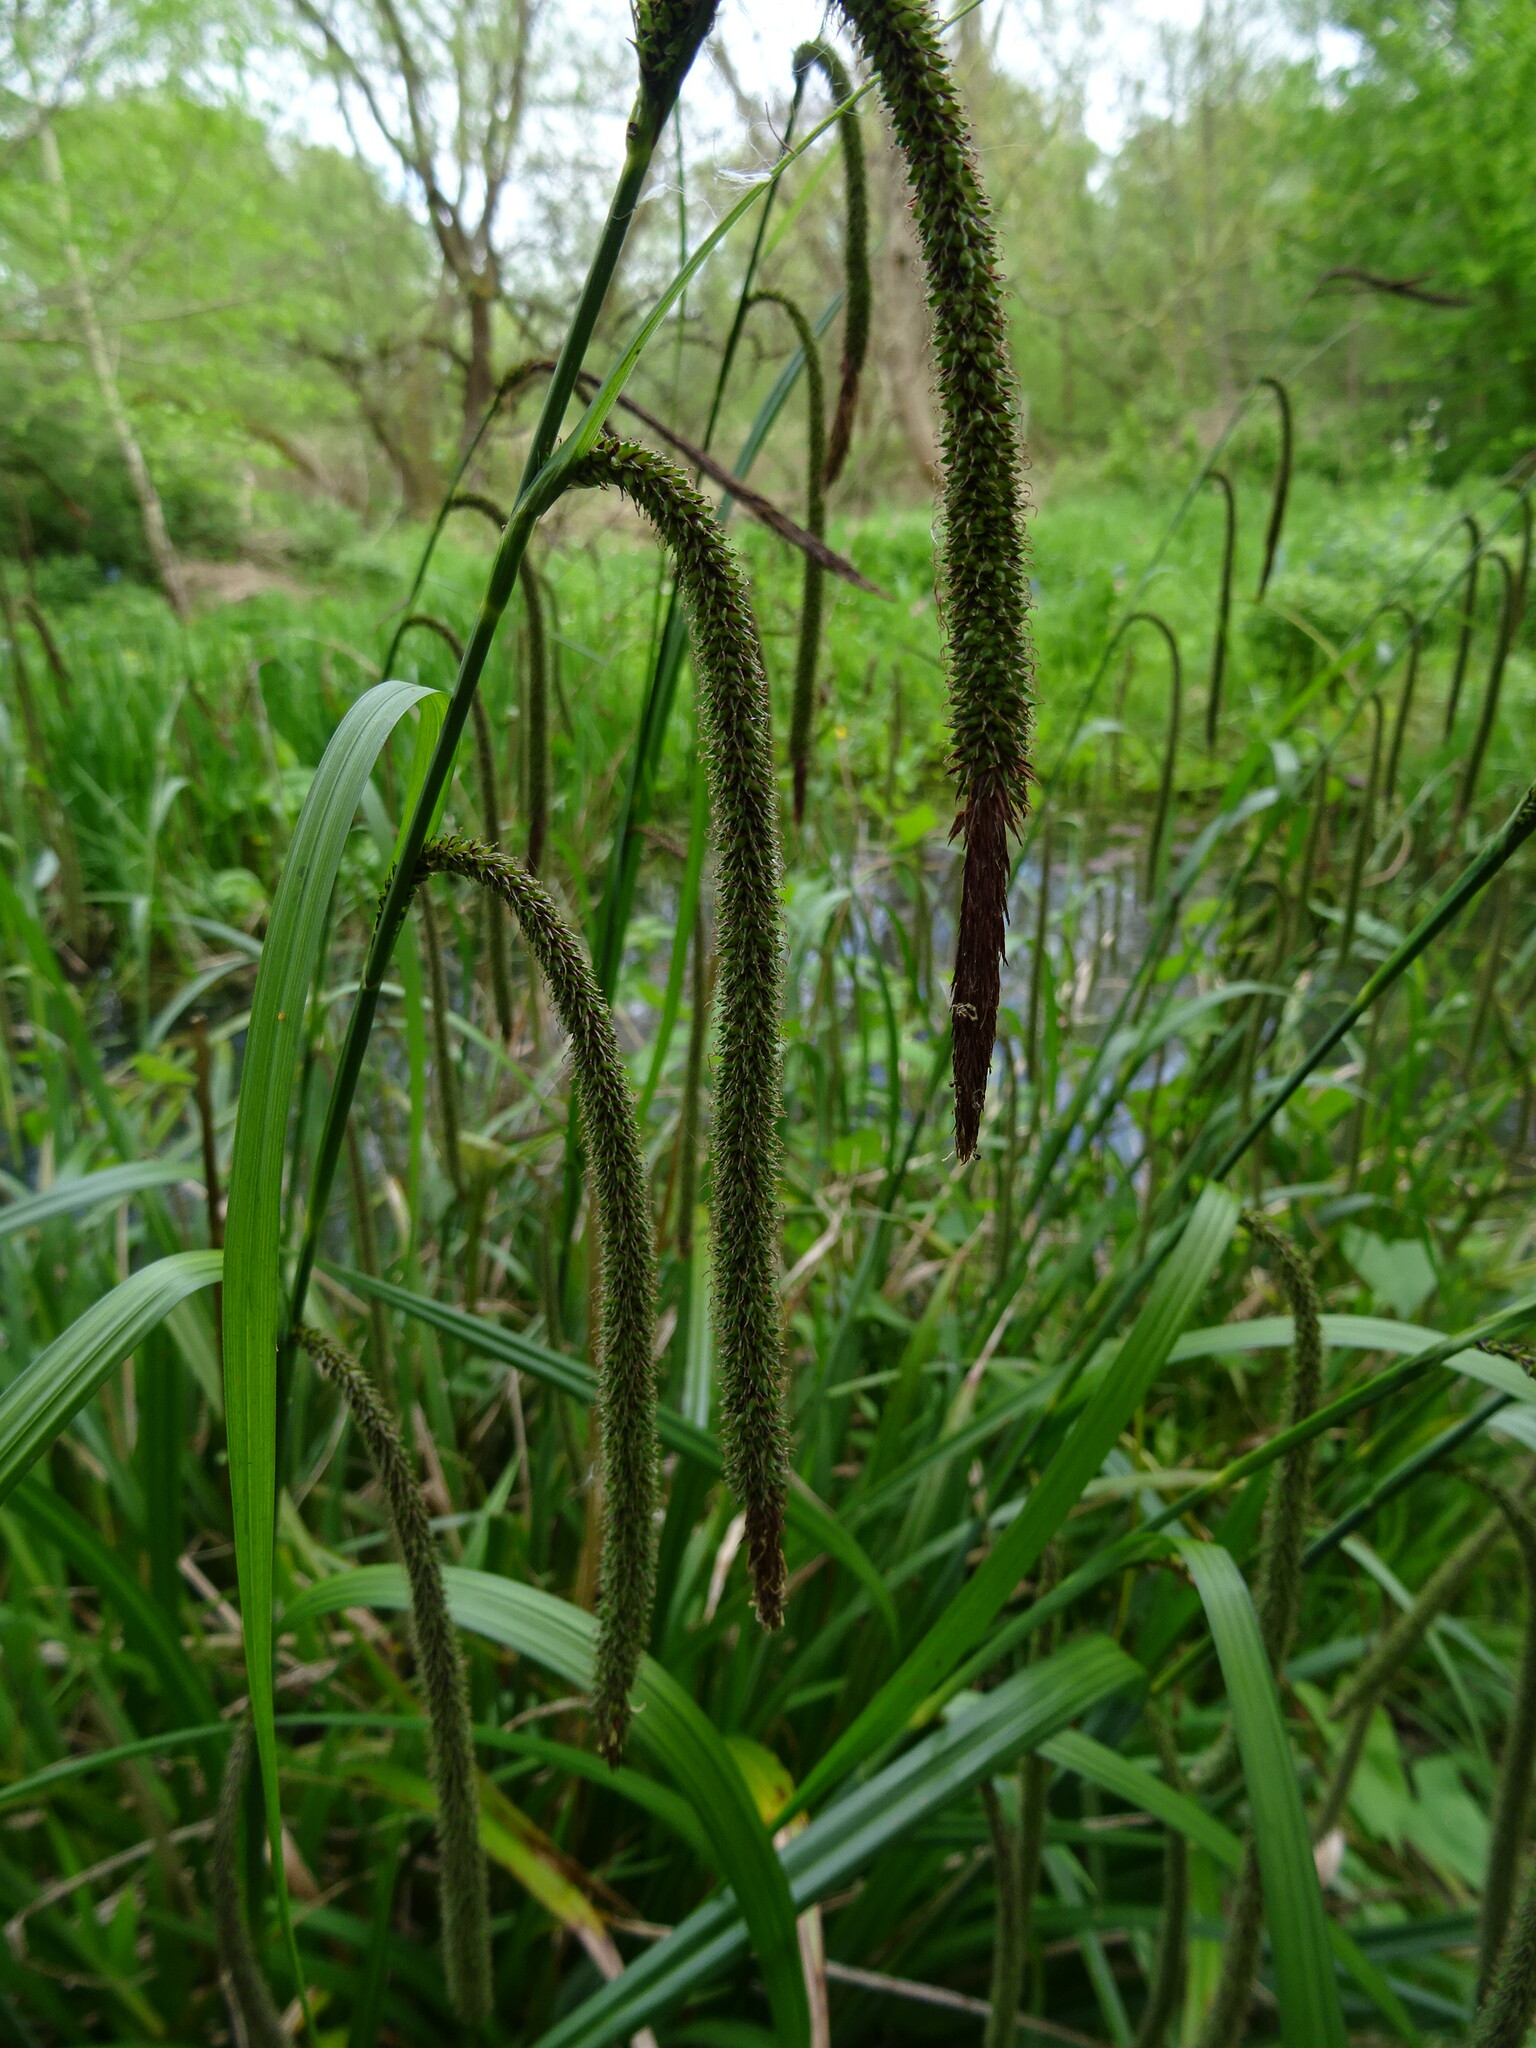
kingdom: Plantae
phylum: Tracheophyta
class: Liliopsida
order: Poales
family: Cyperaceae
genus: Carex
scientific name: Carex pendula
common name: Pendulous sedge
